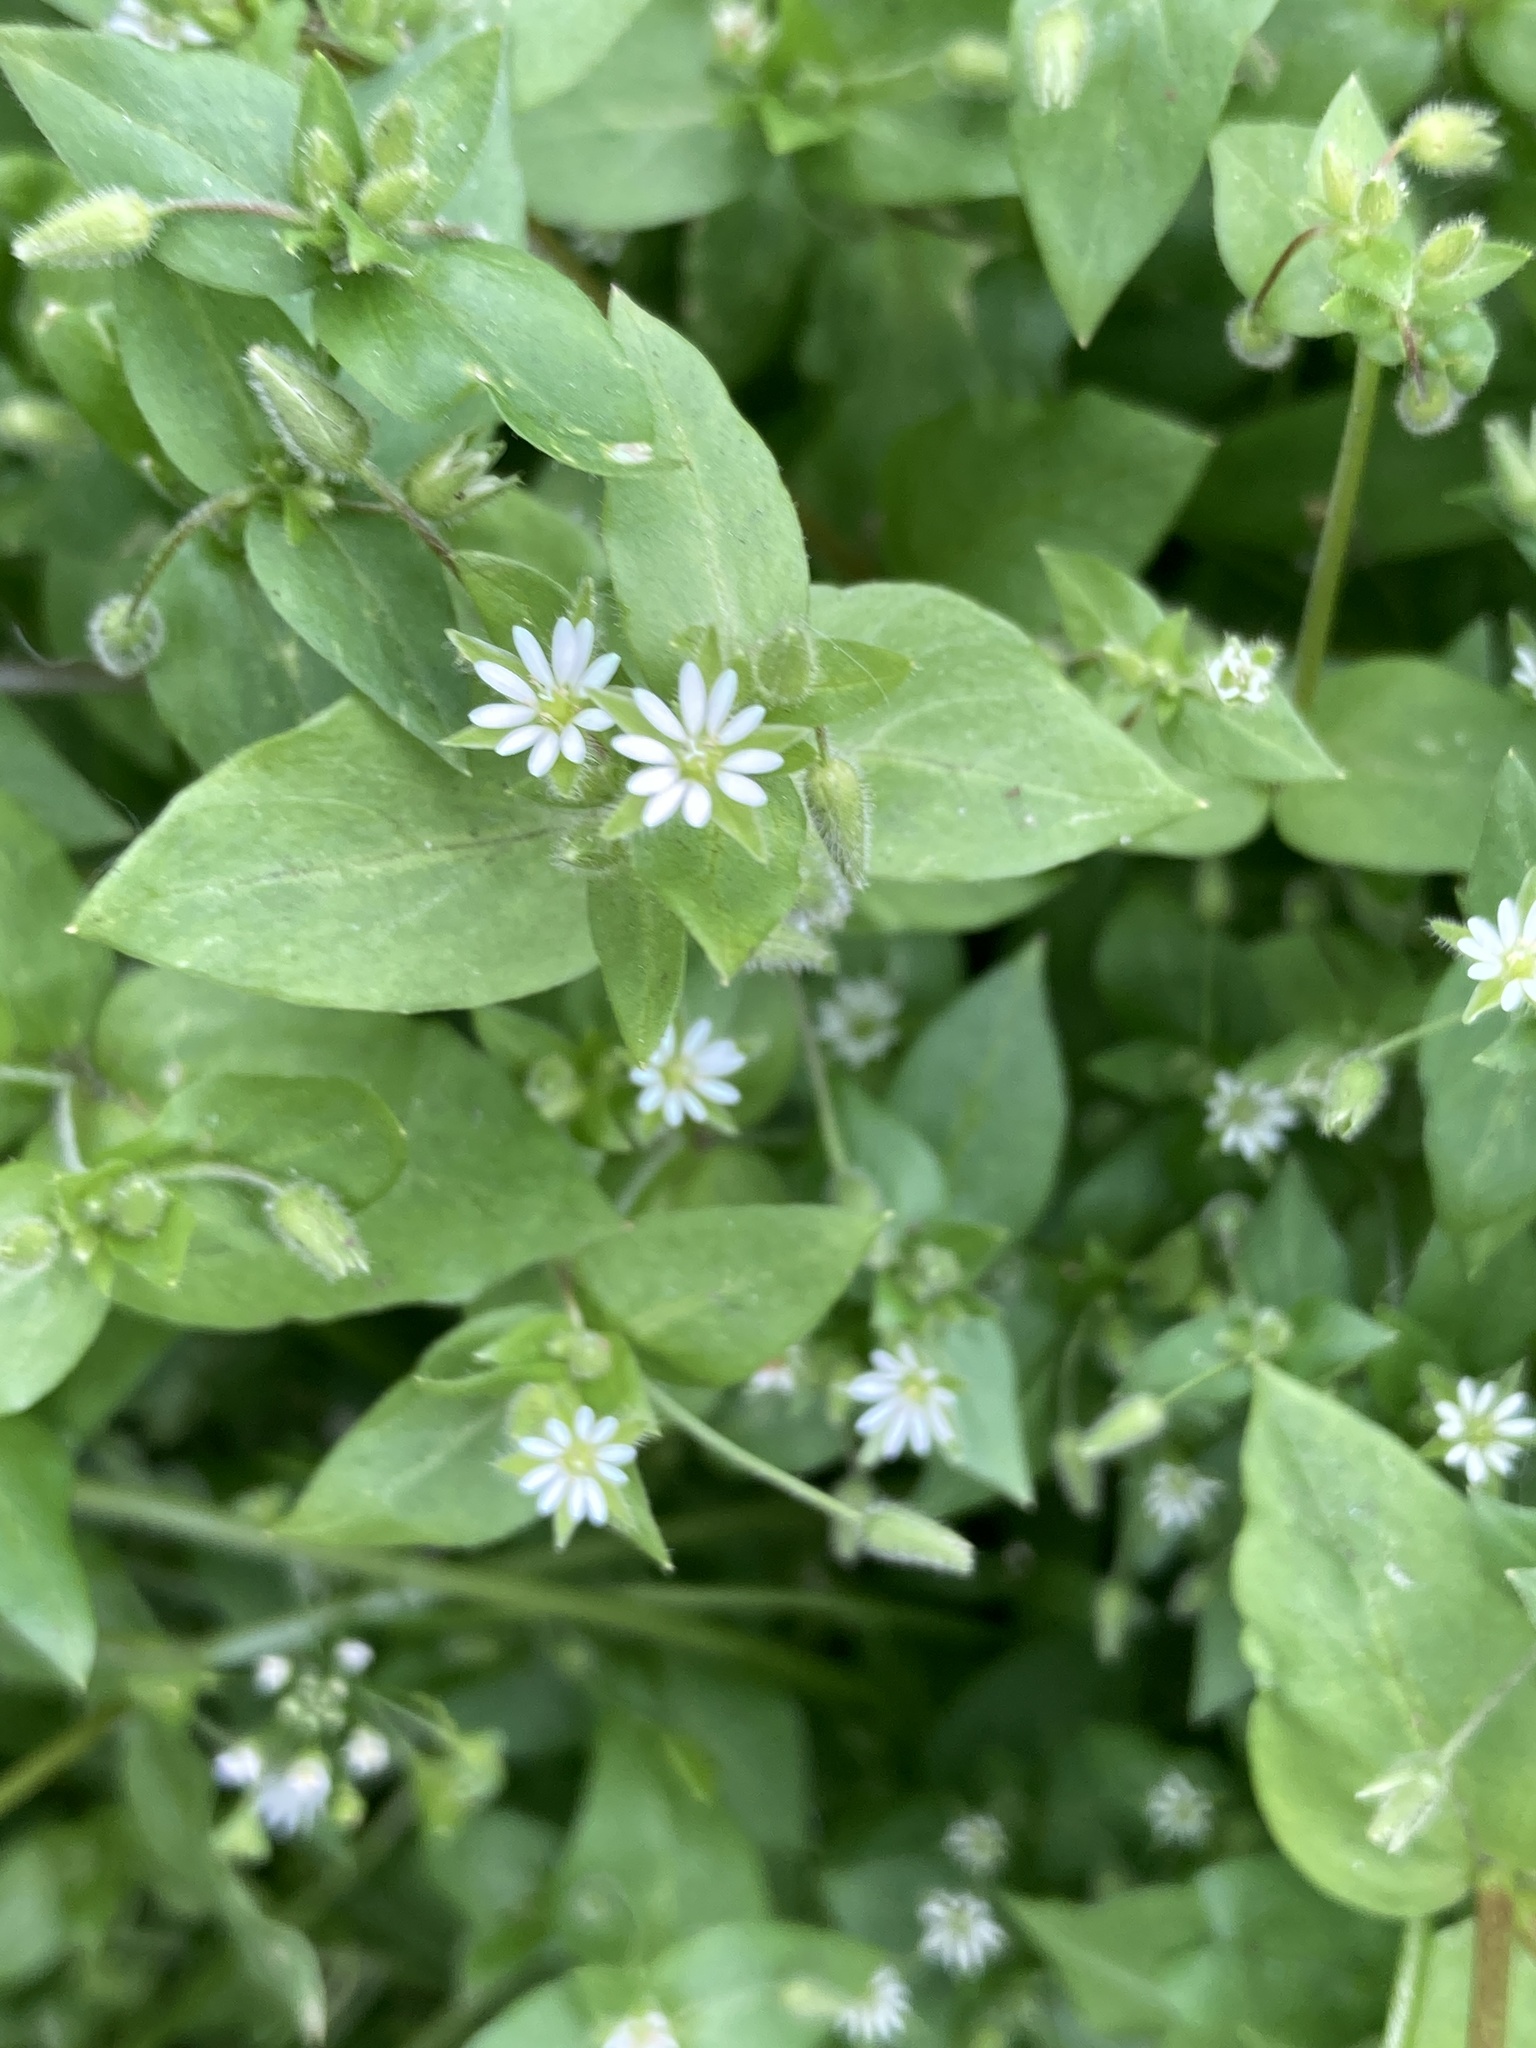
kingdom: Plantae
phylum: Tracheophyta
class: Magnoliopsida
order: Caryophyllales
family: Caryophyllaceae
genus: Stellaria
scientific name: Stellaria media
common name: Common chickweed
